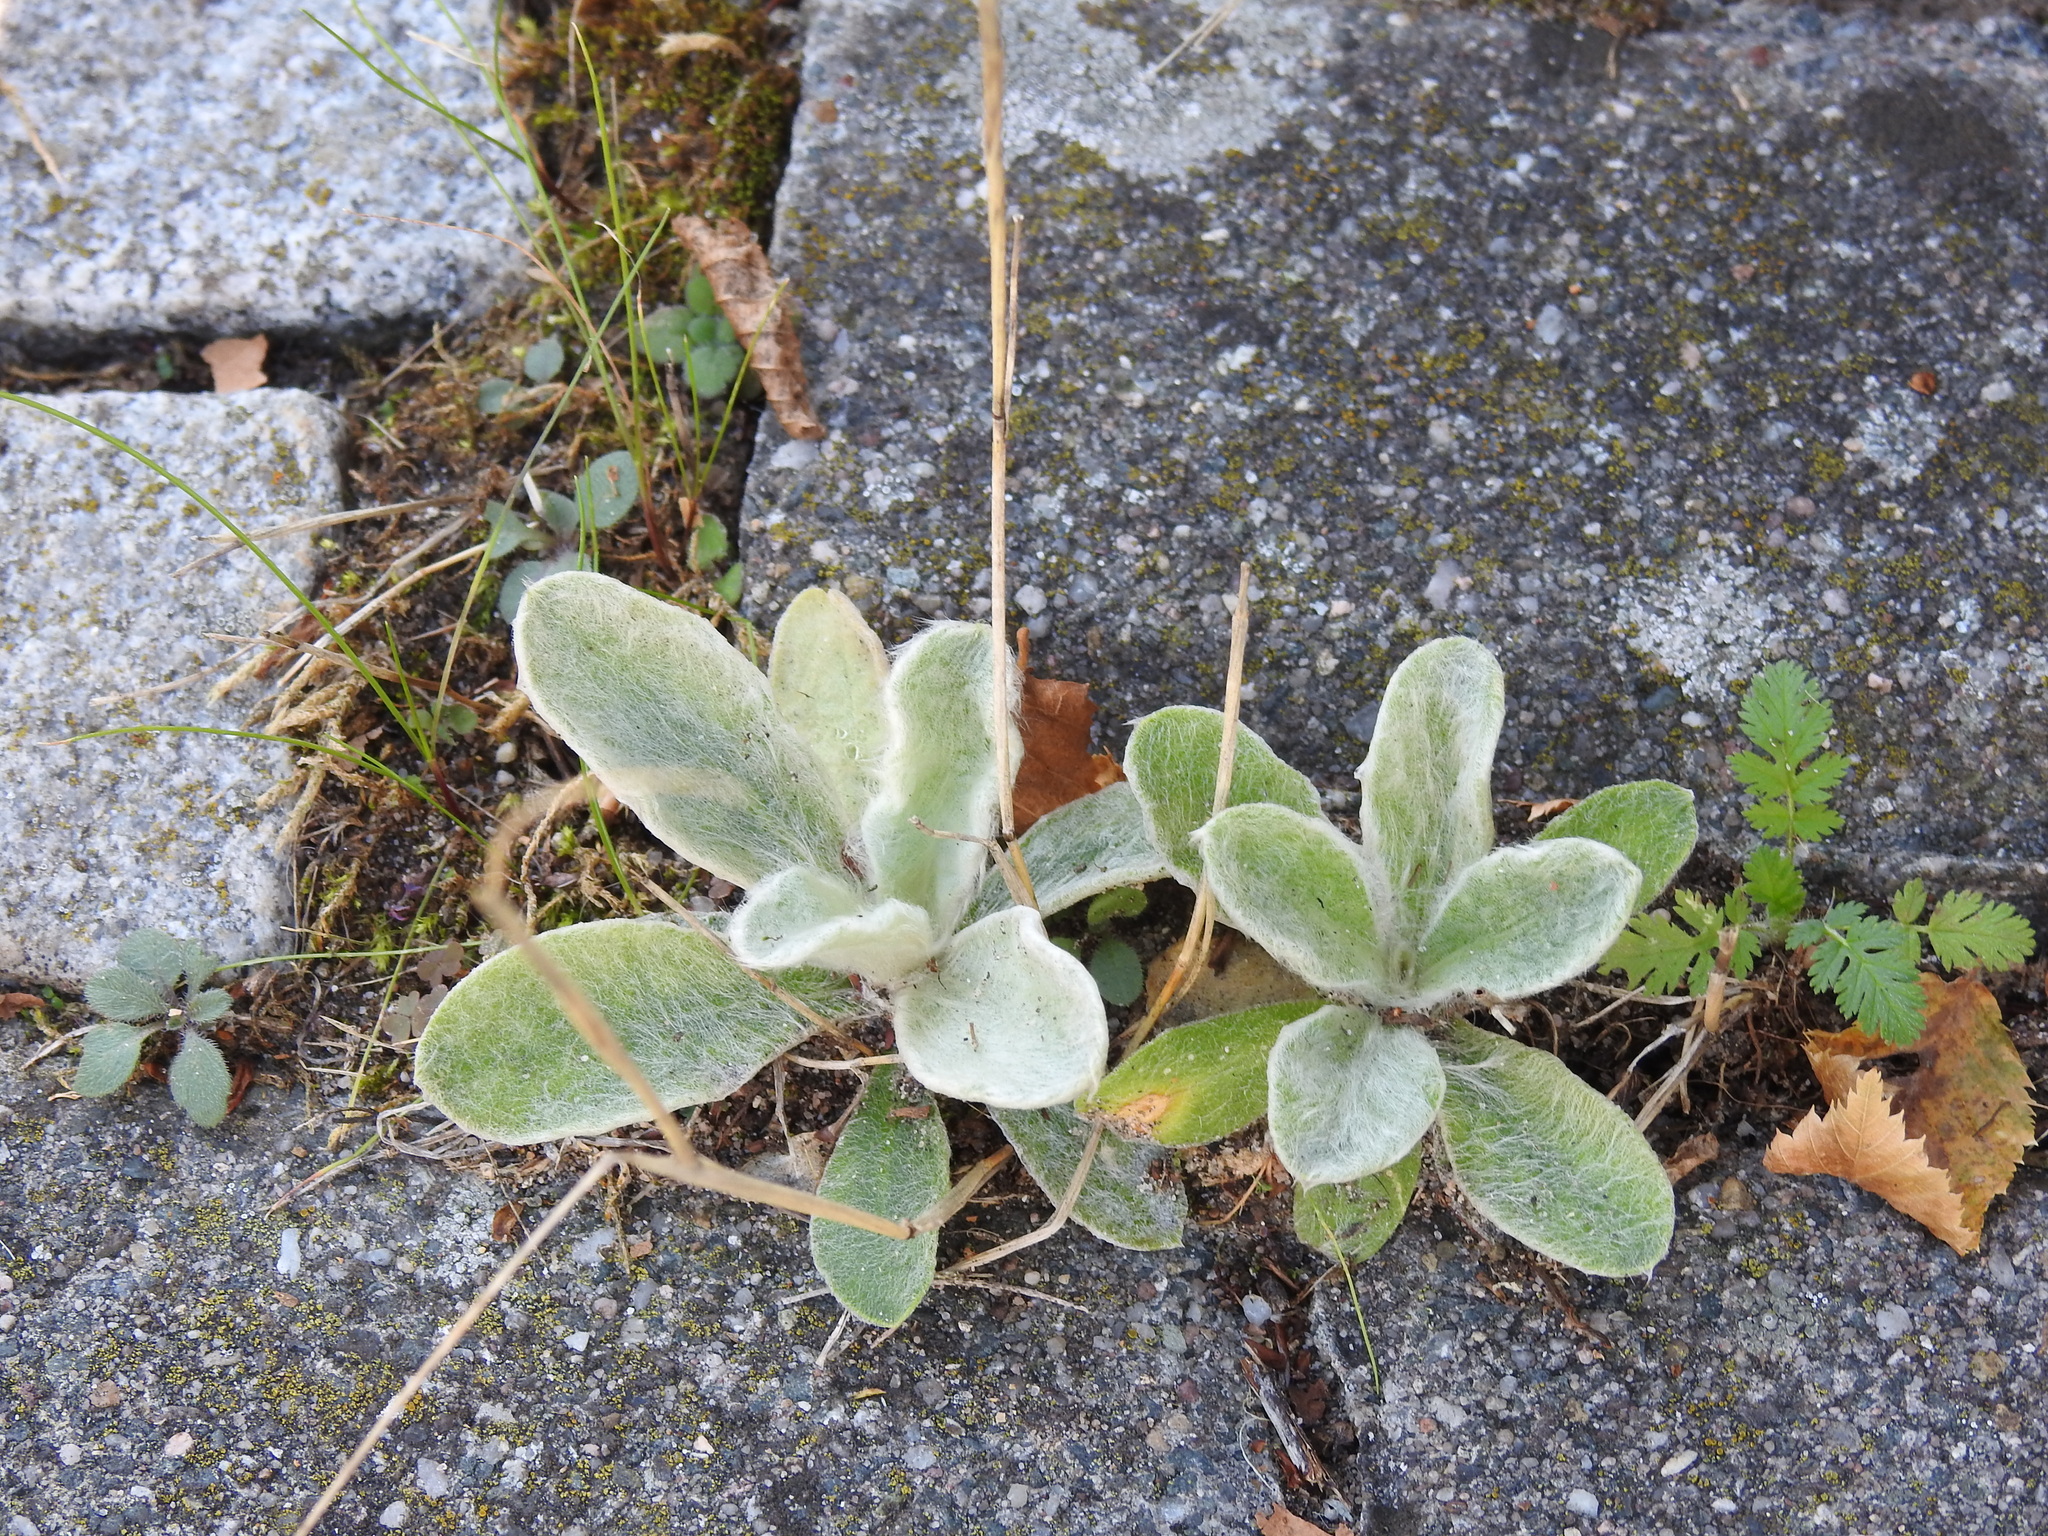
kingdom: Plantae
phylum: Tracheophyta
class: Magnoliopsida
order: Lamiales
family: Lamiaceae
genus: Stachys
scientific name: Stachys byzantina
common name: Lamb's-ear
